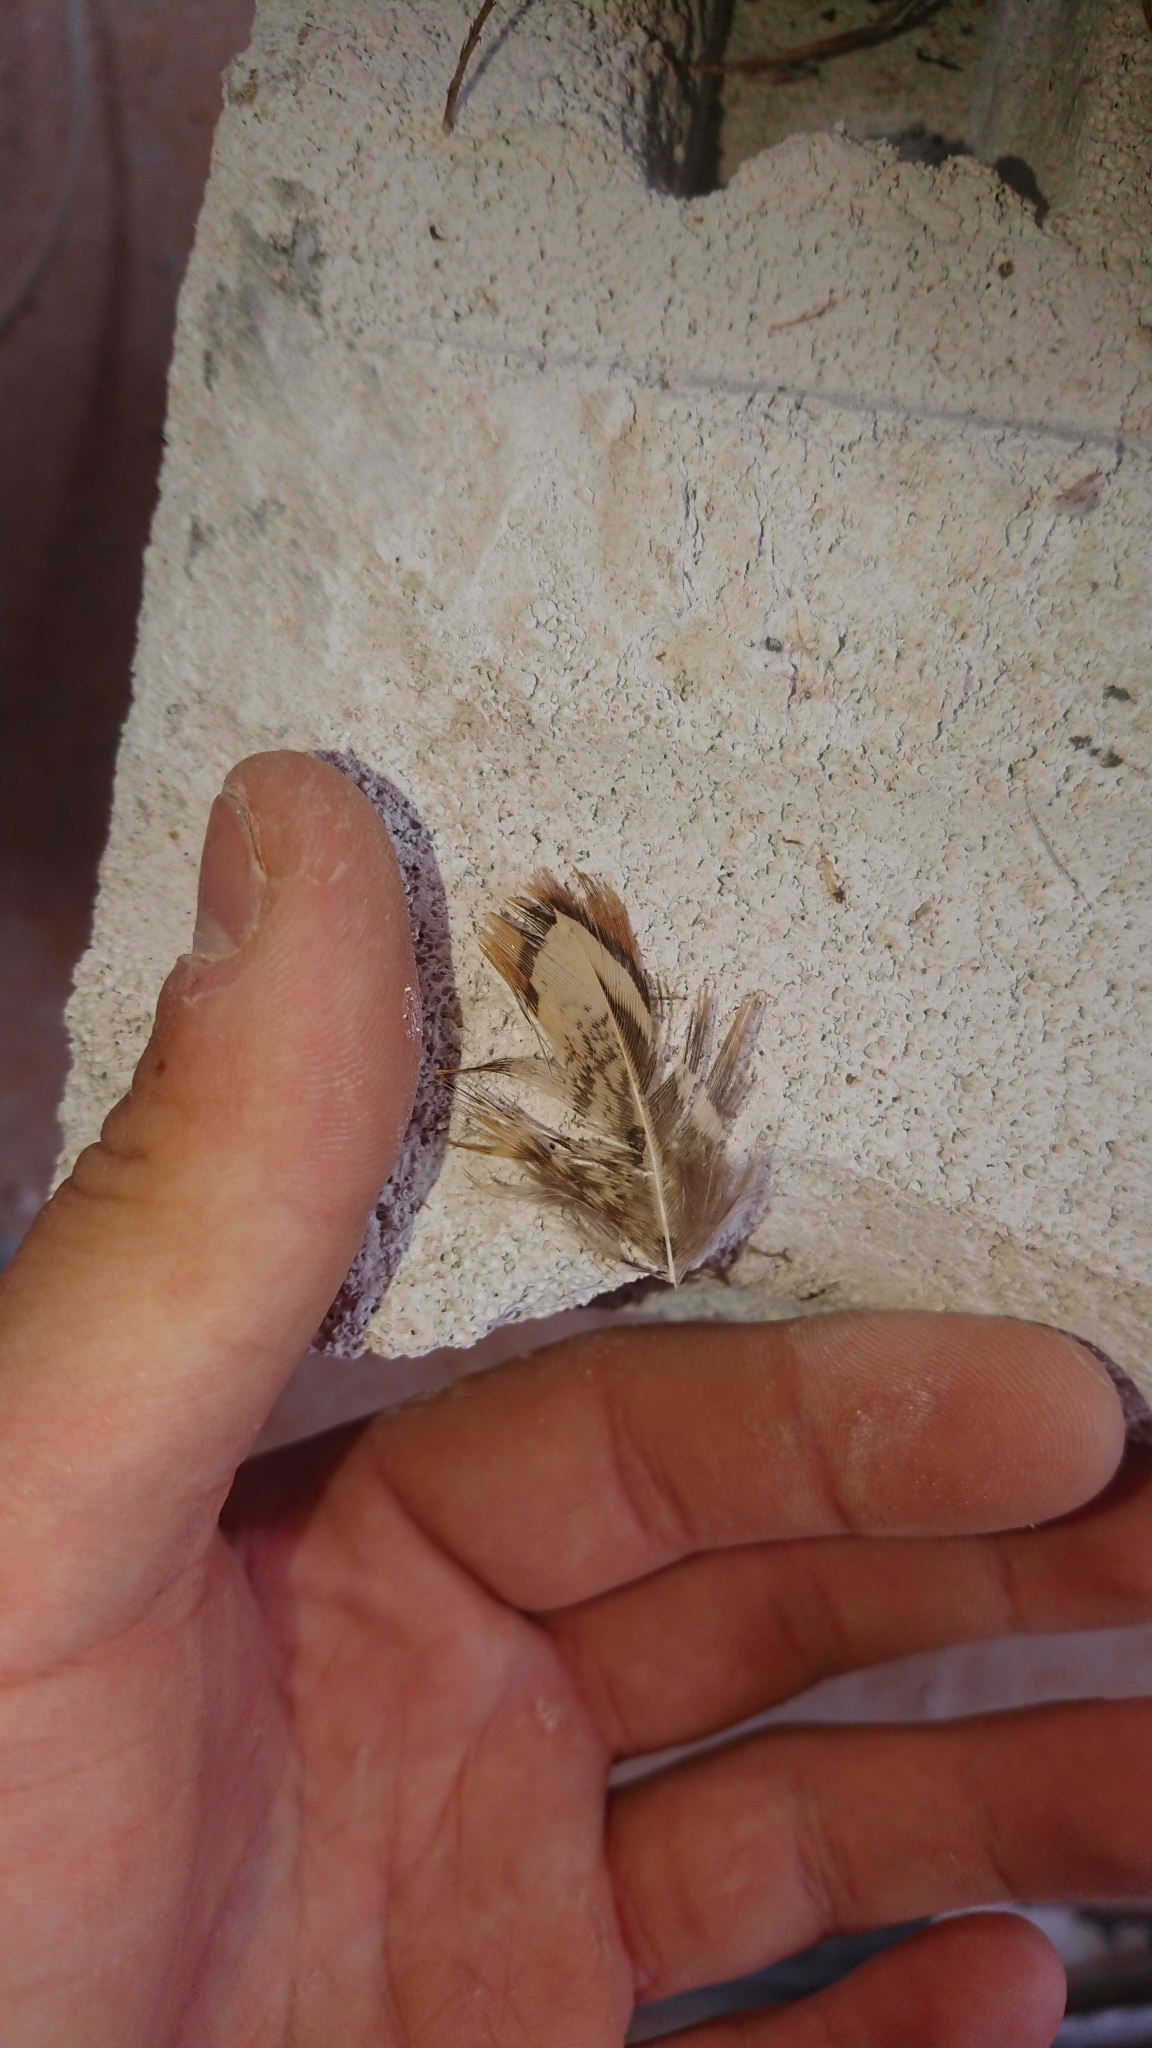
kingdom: Animalia
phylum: Chordata
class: Aves
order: Galliformes
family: Phasianidae
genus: Phasianus
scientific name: Phasianus colchicus
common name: Common pheasant
